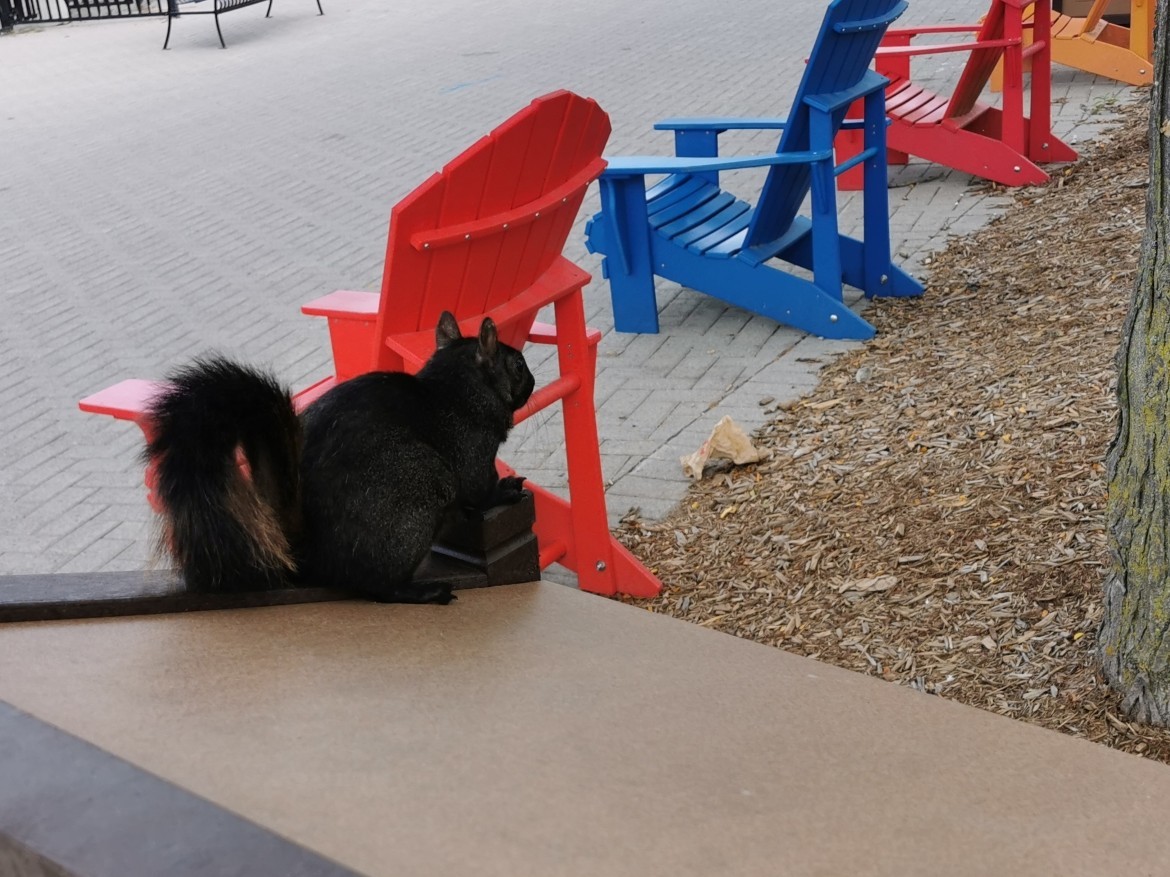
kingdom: Animalia
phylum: Chordata
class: Mammalia
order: Rodentia
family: Sciuridae
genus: Sciurus
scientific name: Sciurus carolinensis
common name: Eastern gray squirrel
